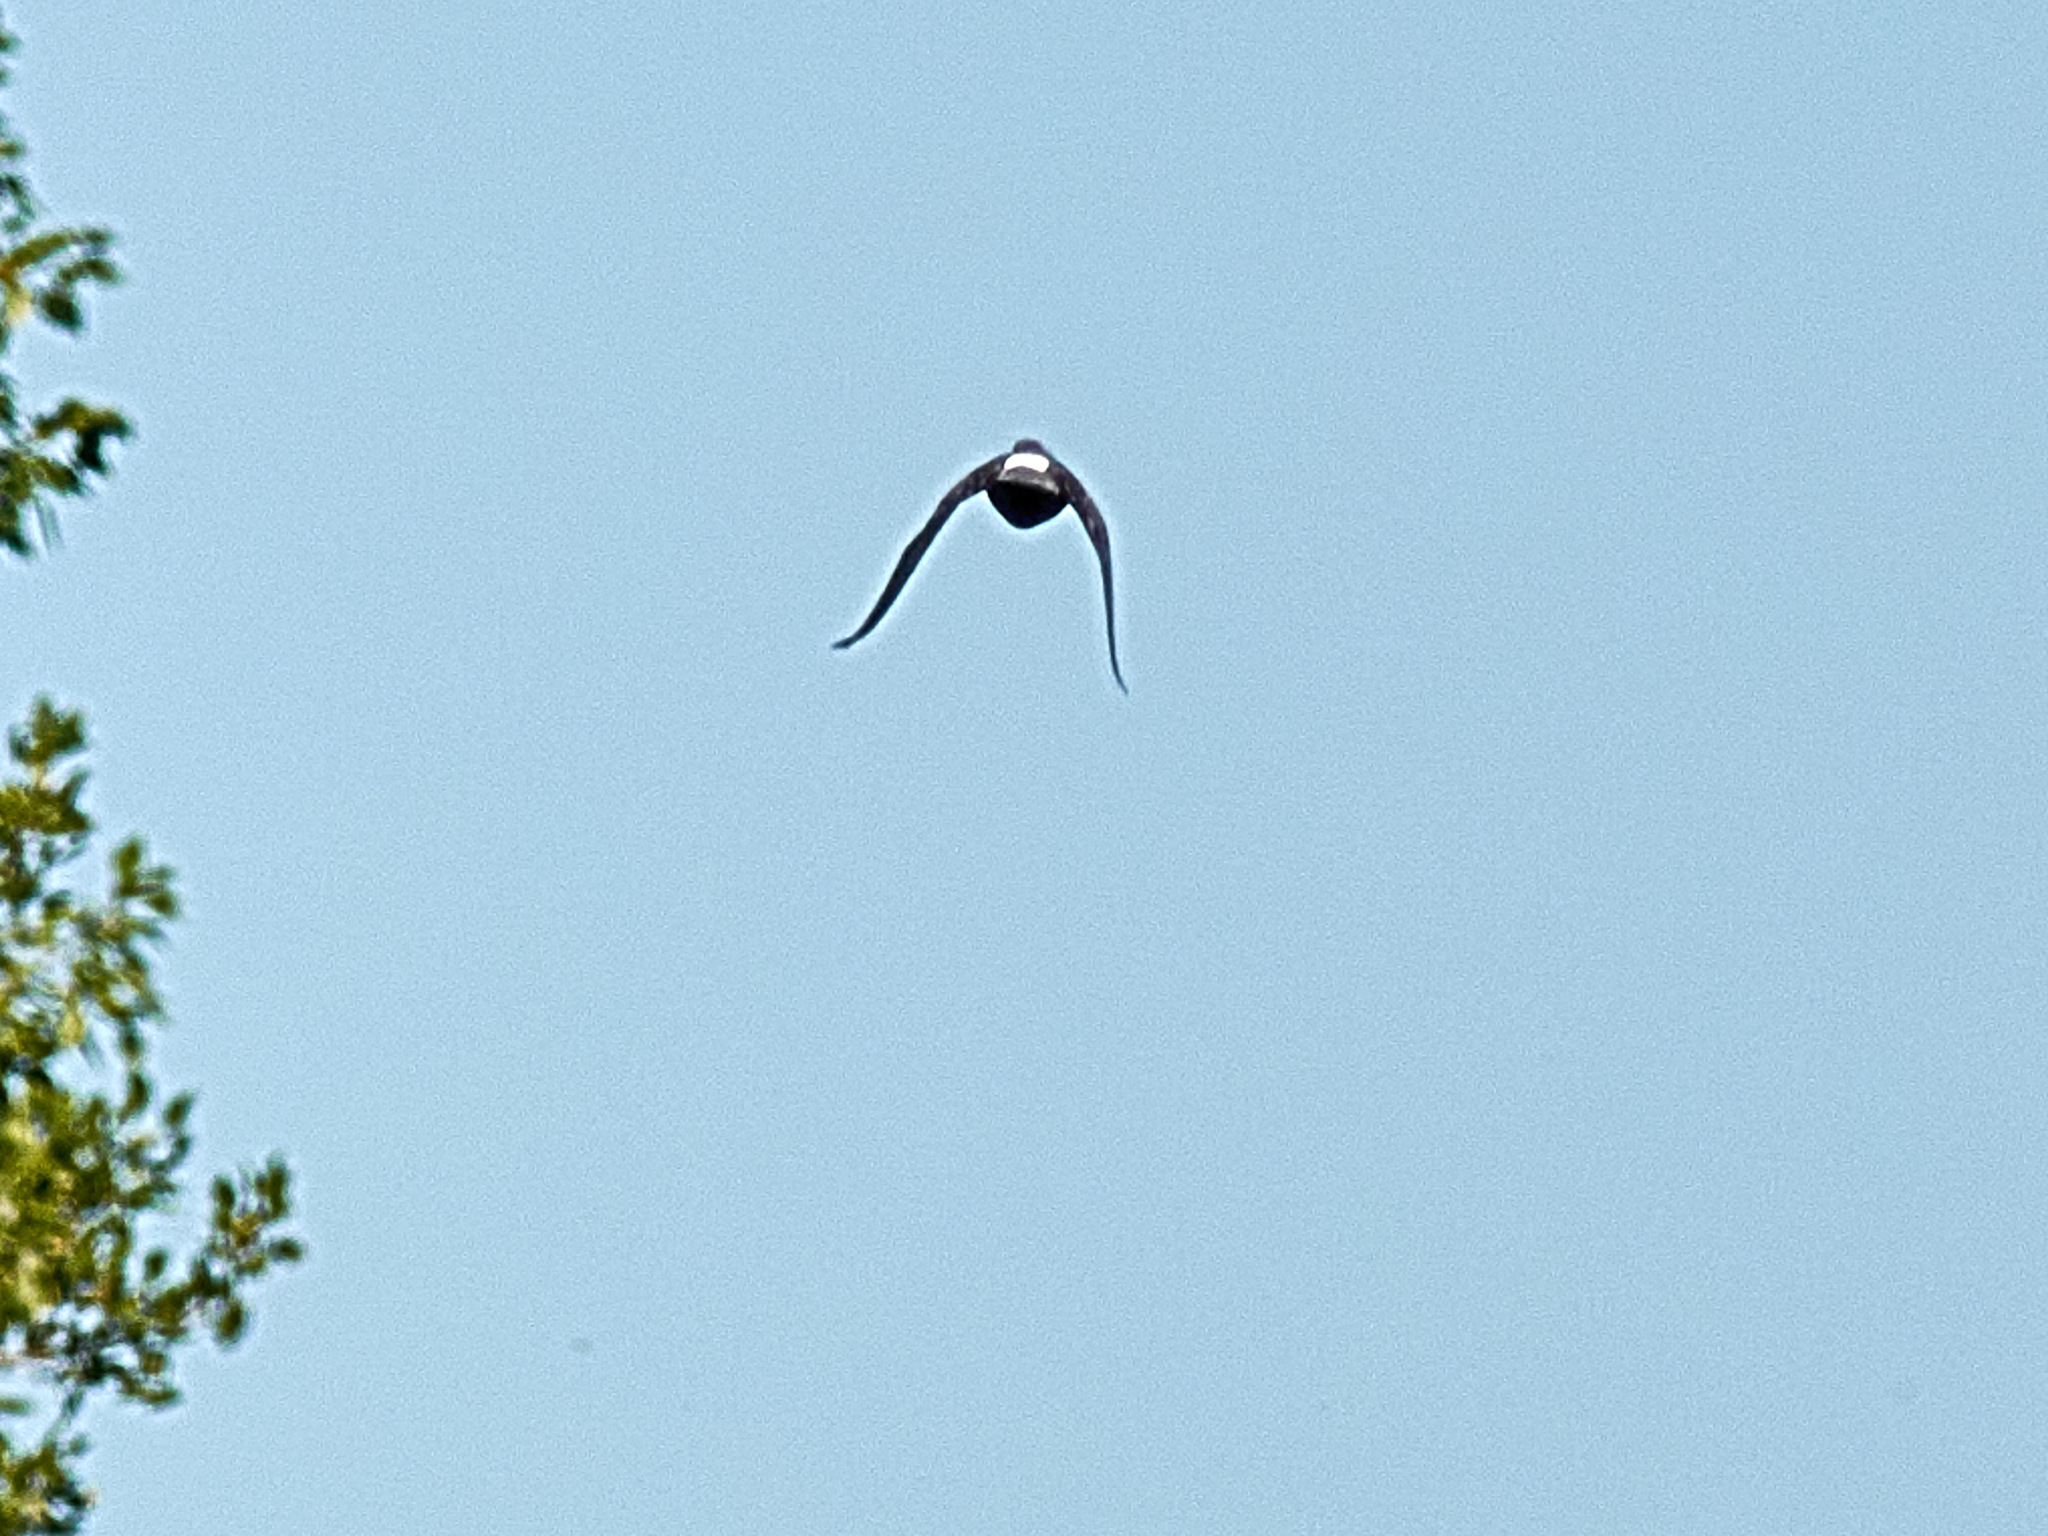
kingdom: Animalia
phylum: Chordata
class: Aves
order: Columbiformes
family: Columbidae
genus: Columba
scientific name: Columba livia
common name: Rock pigeon
